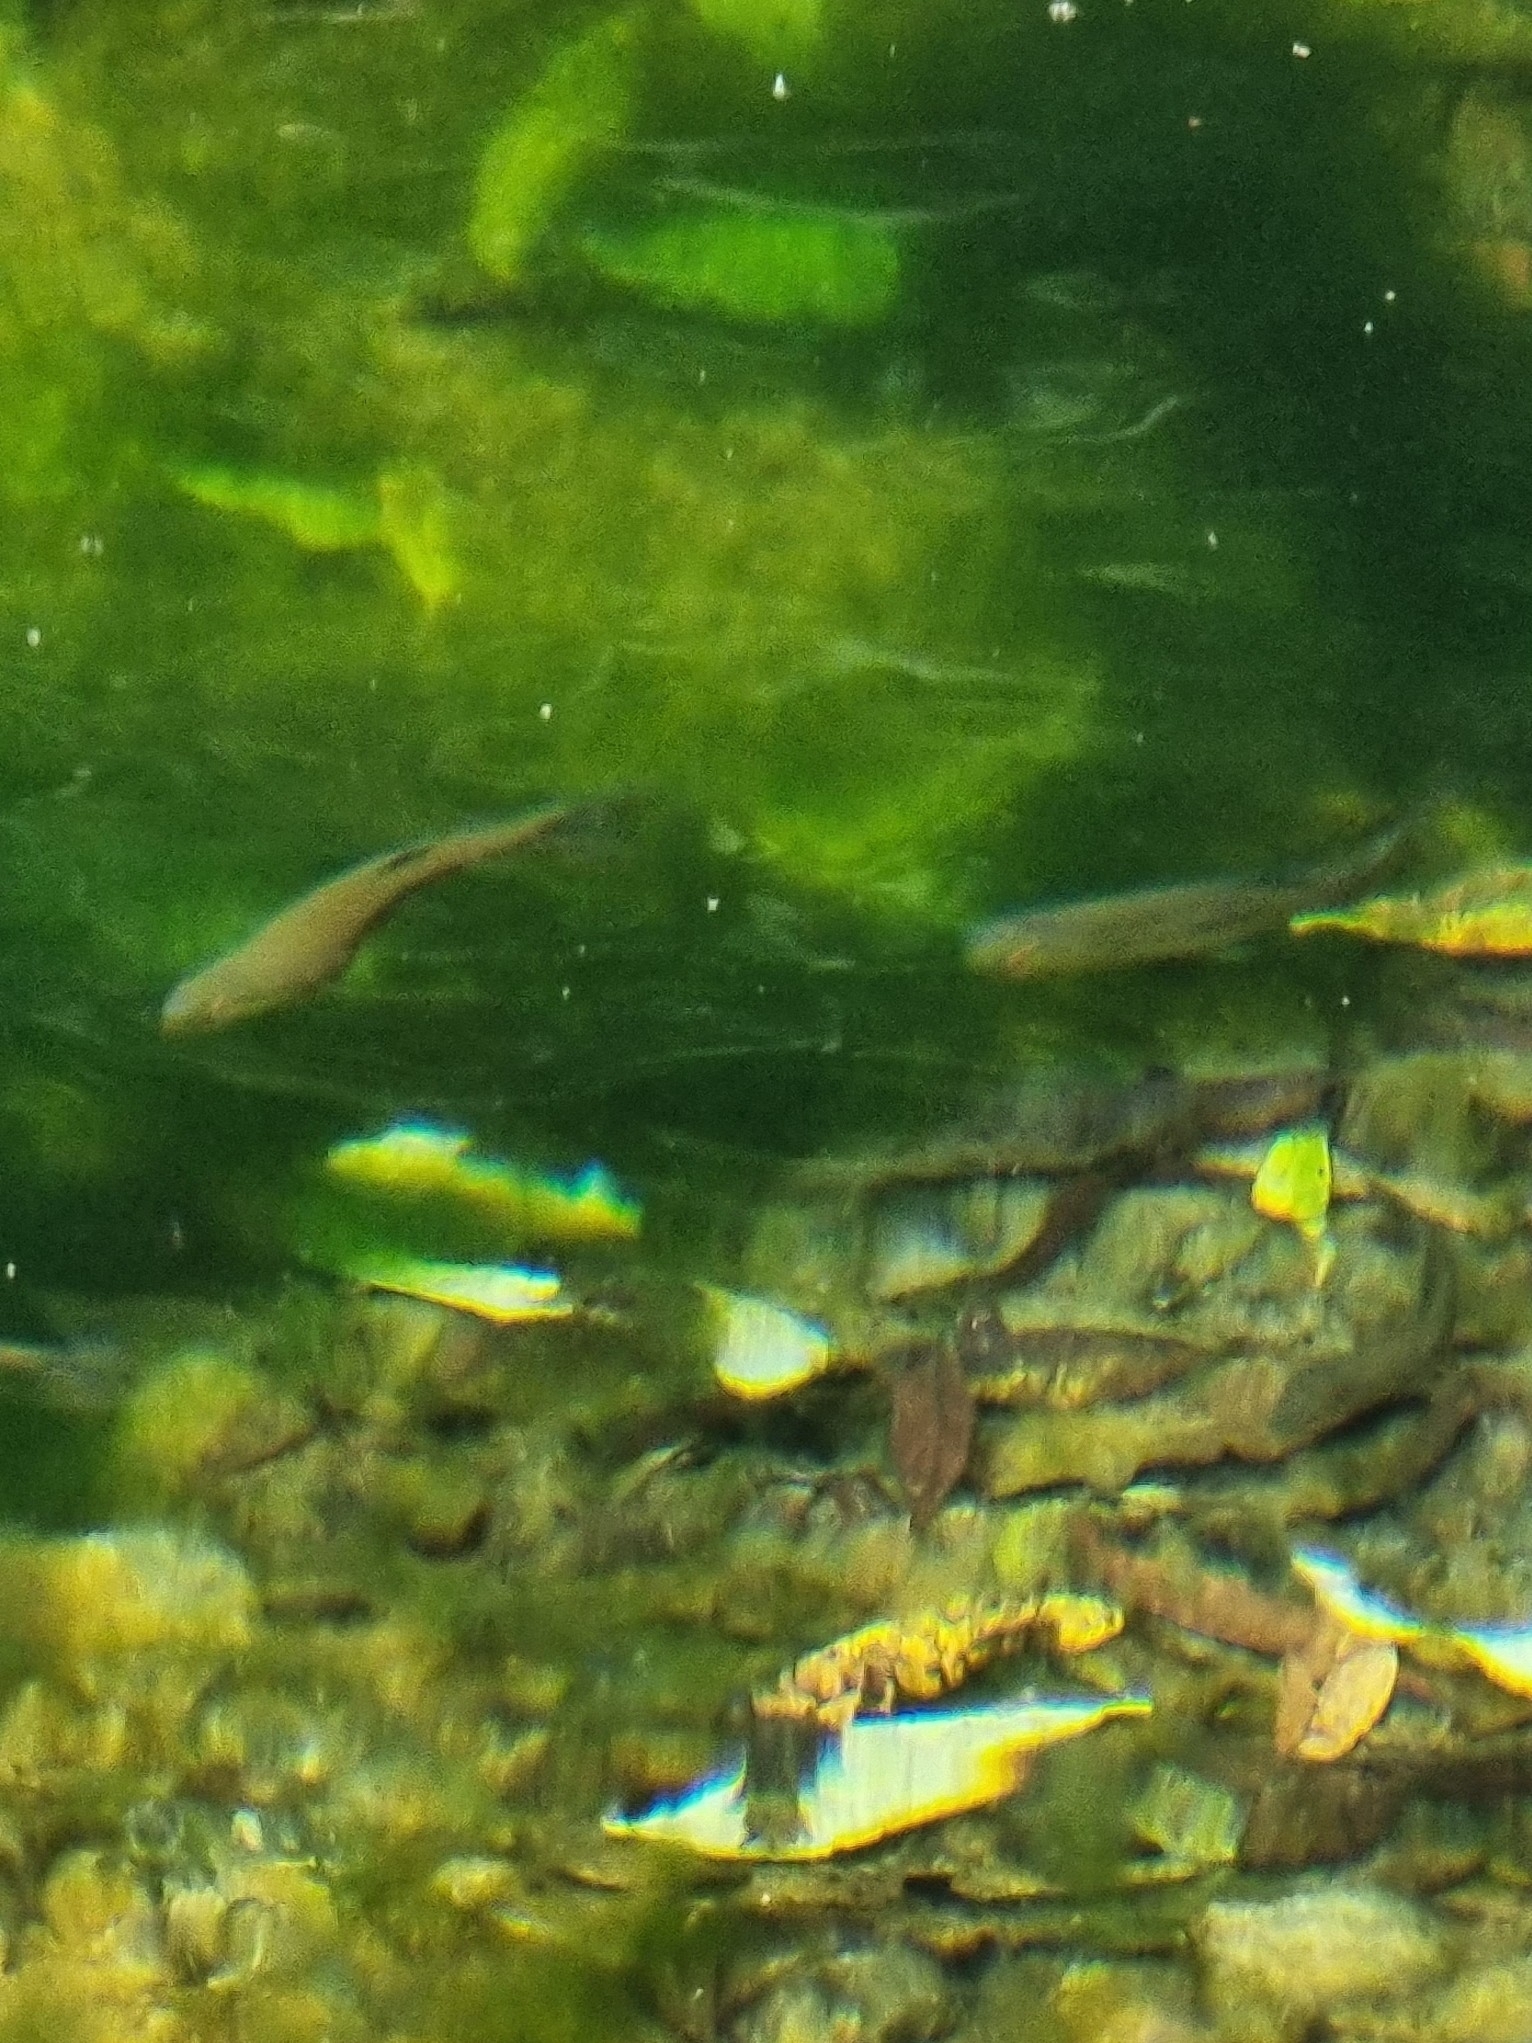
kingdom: Animalia
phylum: Chordata
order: Salmoniformes
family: Salmonidae
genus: Oncorhynchus
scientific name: Oncorhynchus mykiss
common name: Rainbow trout
